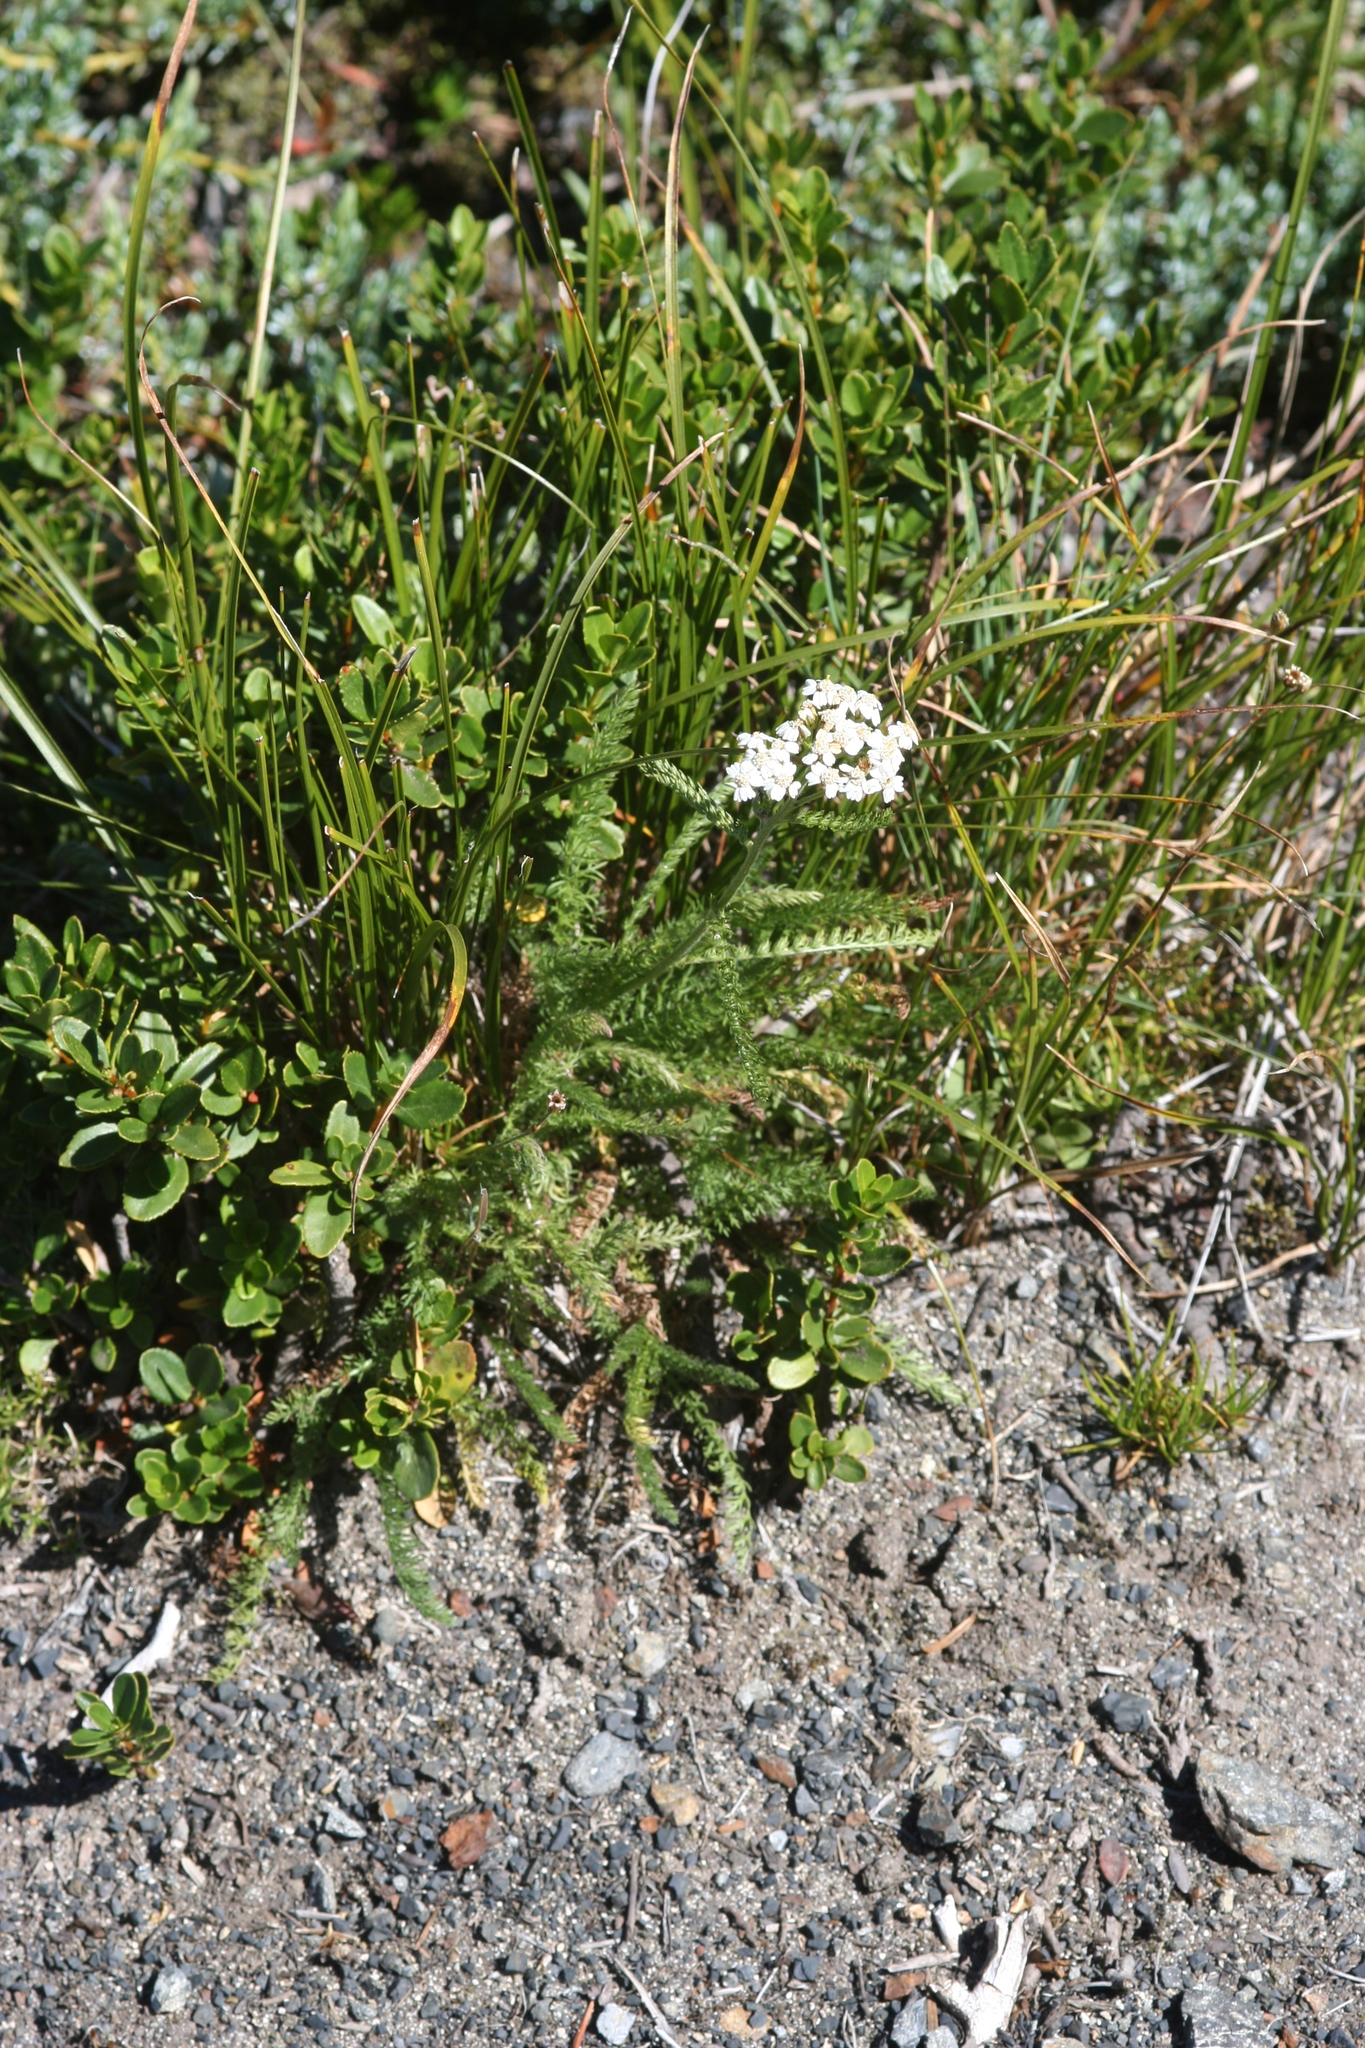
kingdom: Plantae
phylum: Tracheophyta
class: Magnoliopsida
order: Asterales
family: Asteraceae
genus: Achillea
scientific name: Achillea millefolium
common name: Yarrow
